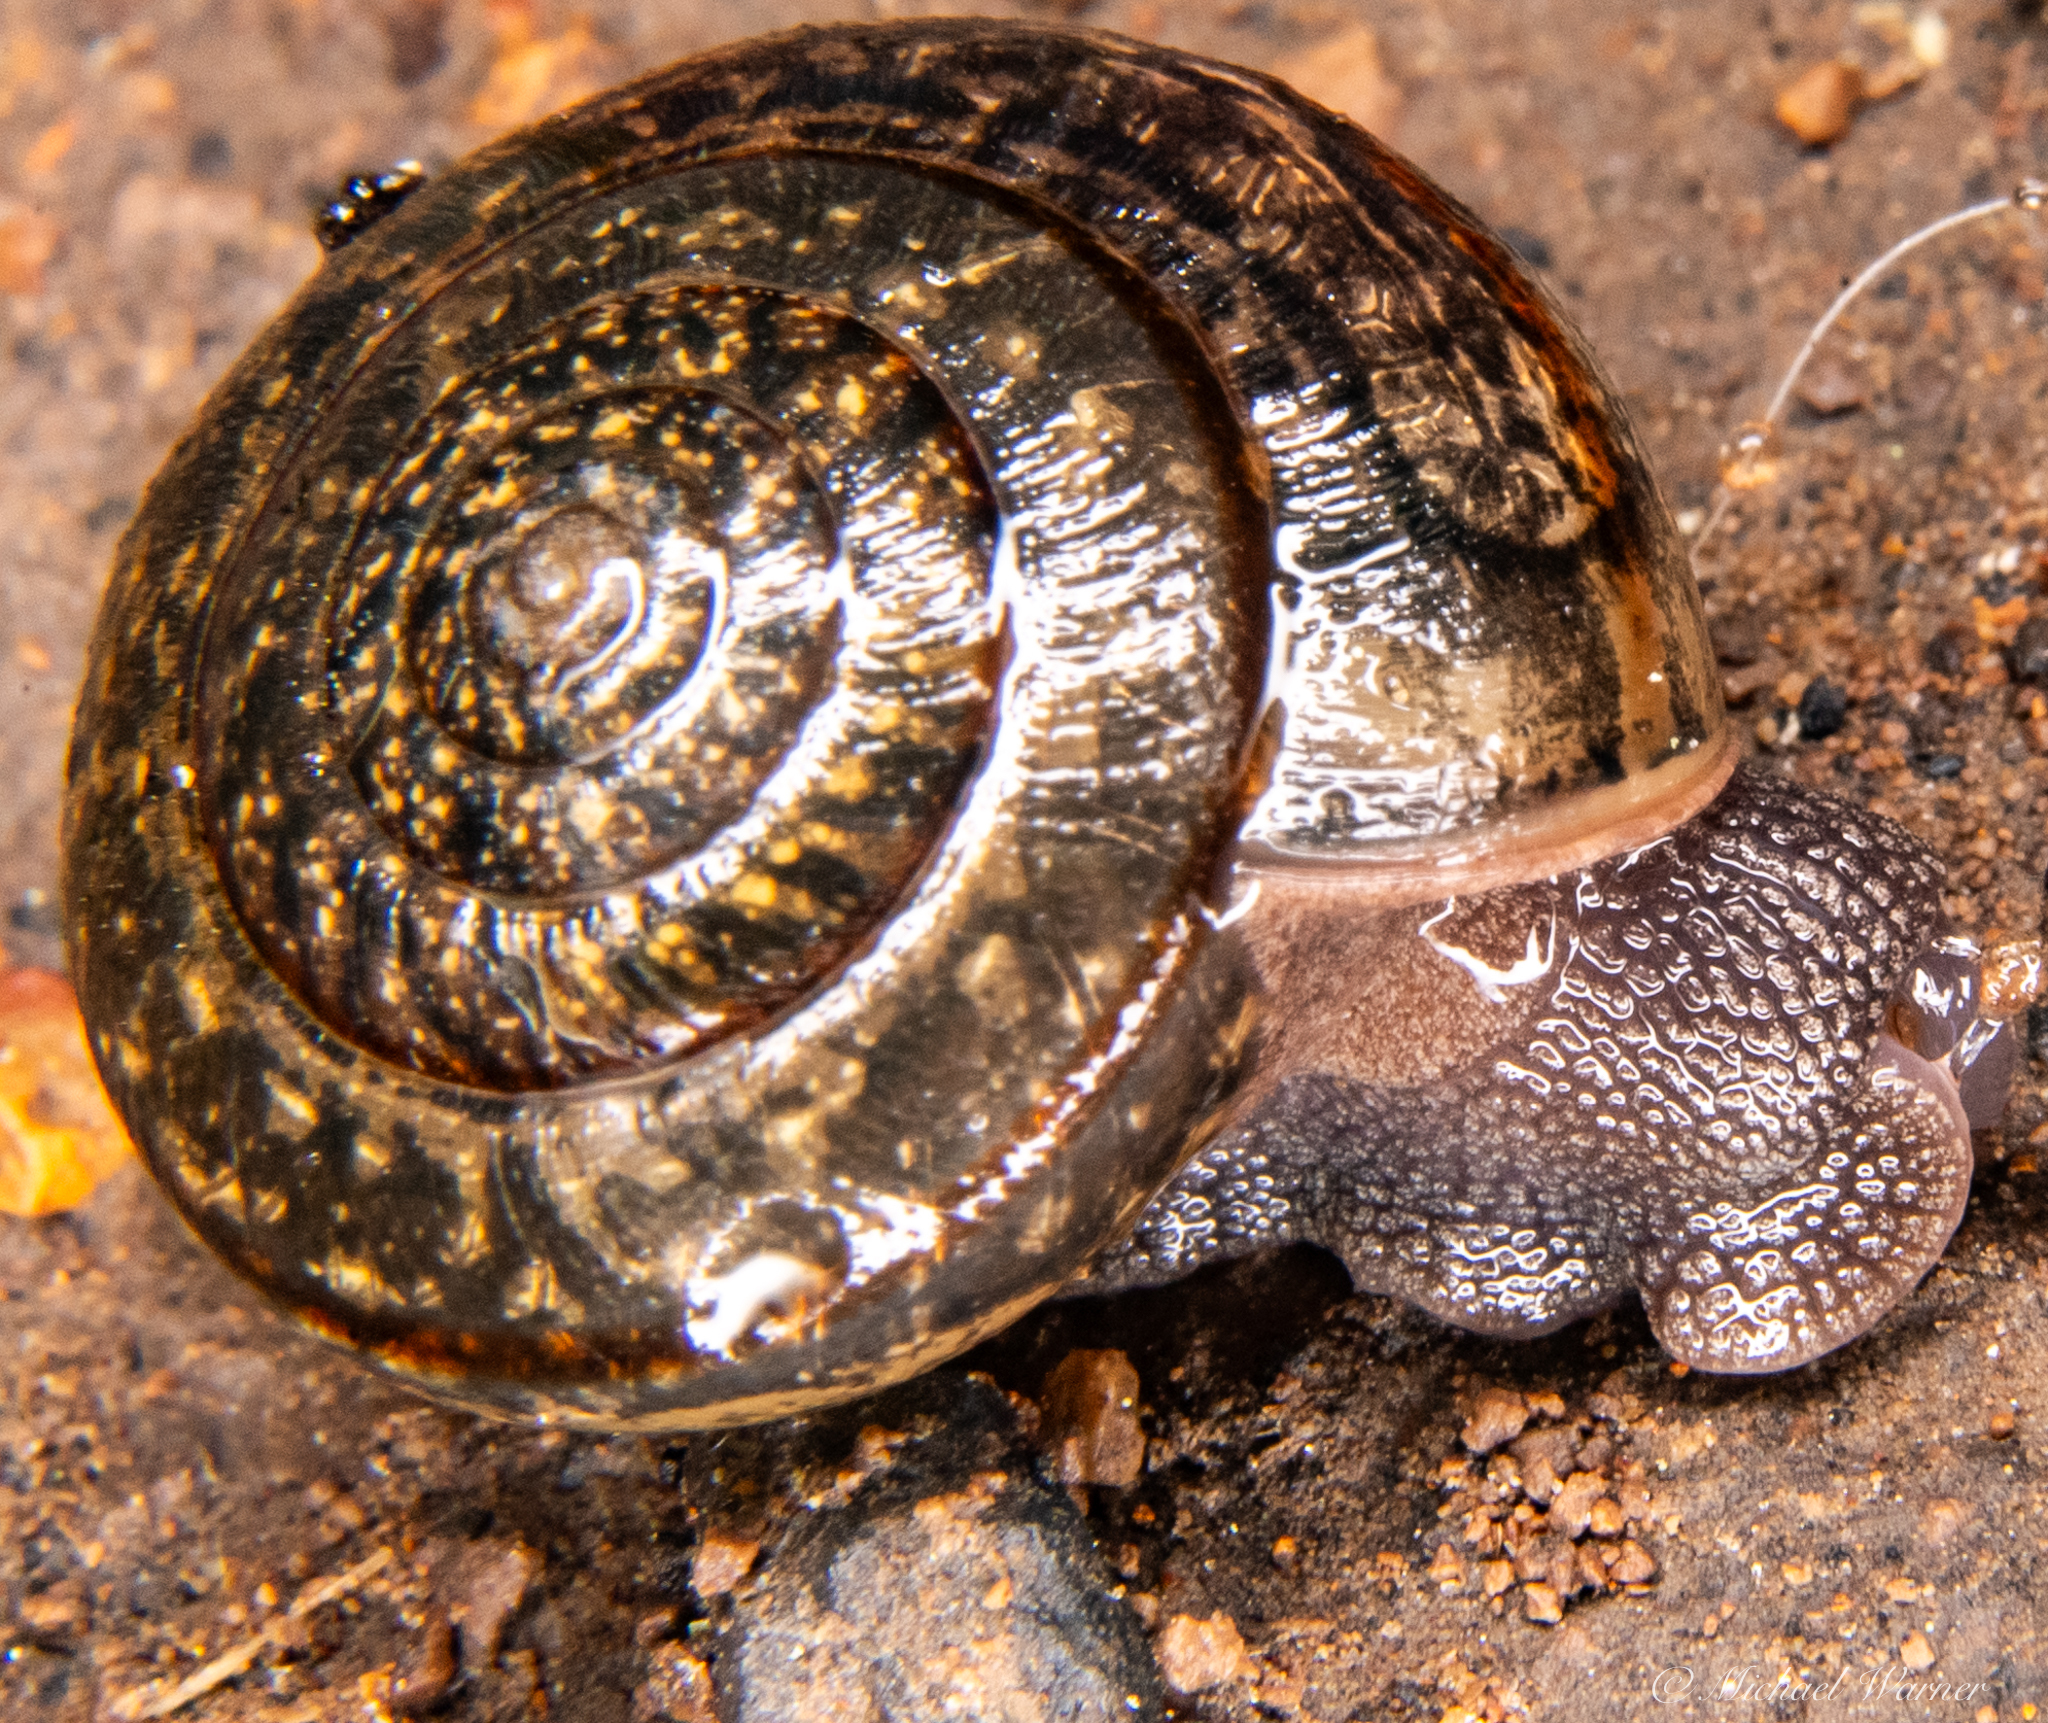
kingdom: Animalia
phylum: Mollusca
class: Gastropoda
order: Stylommatophora
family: Xanthonychidae
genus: Helminthoglypta
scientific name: Helminthoglypta contracostae
